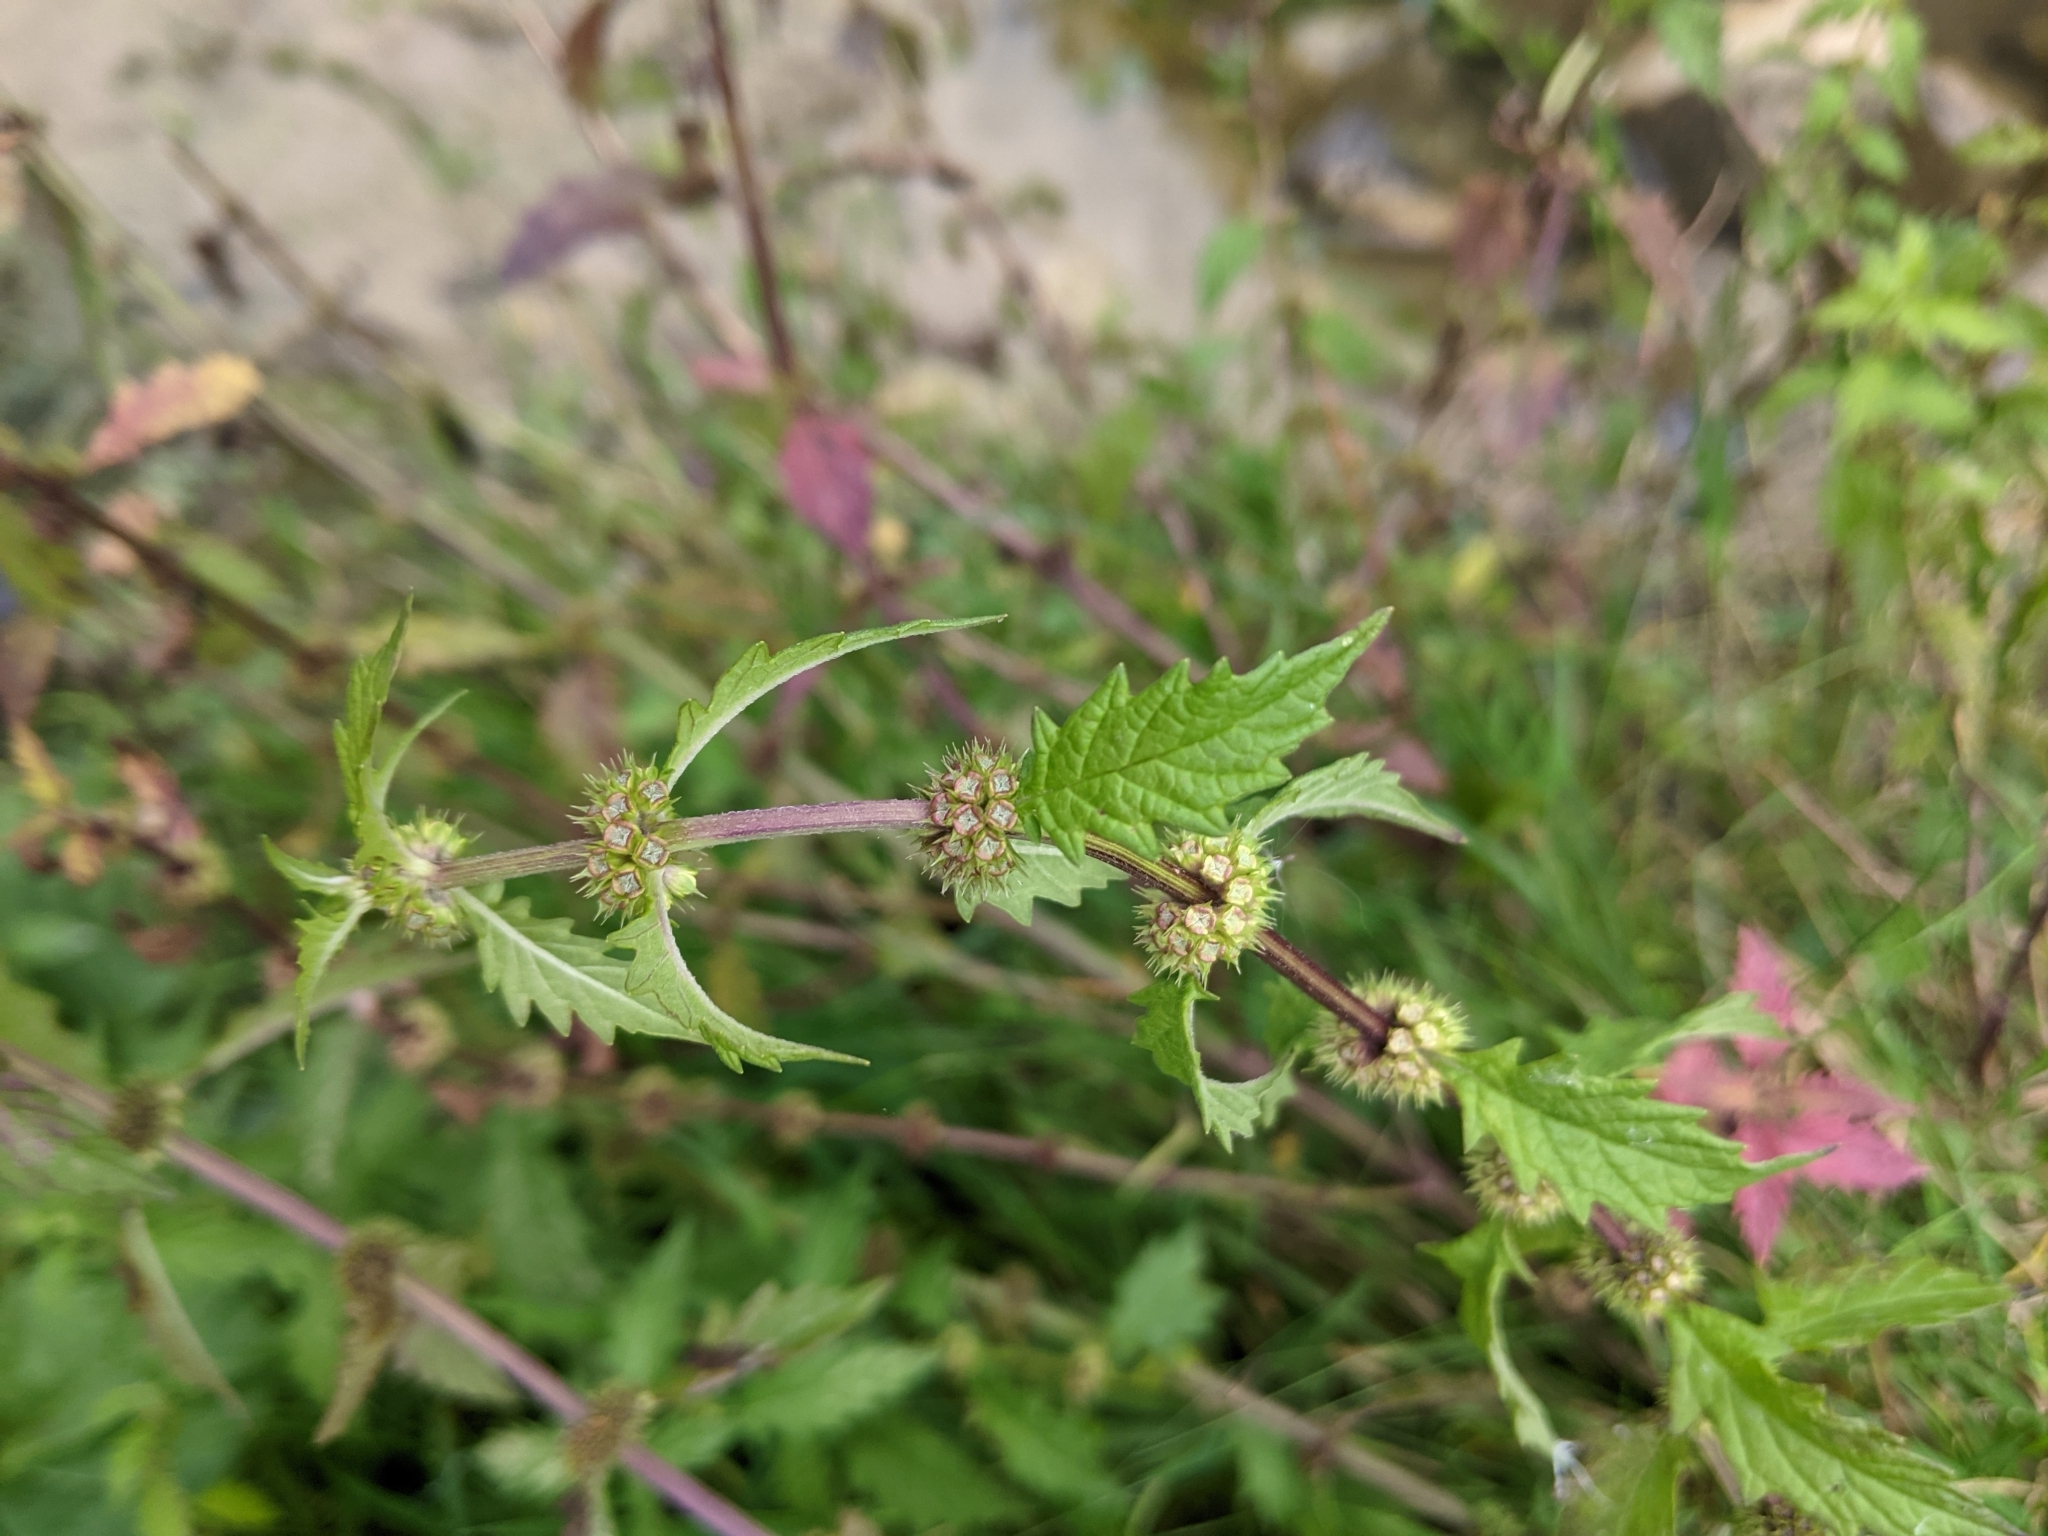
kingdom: Plantae
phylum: Tracheophyta
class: Magnoliopsida
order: Lamiales
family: Lamiaceae
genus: Lycopus
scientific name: Lycopus europaeus
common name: European bugleweed
